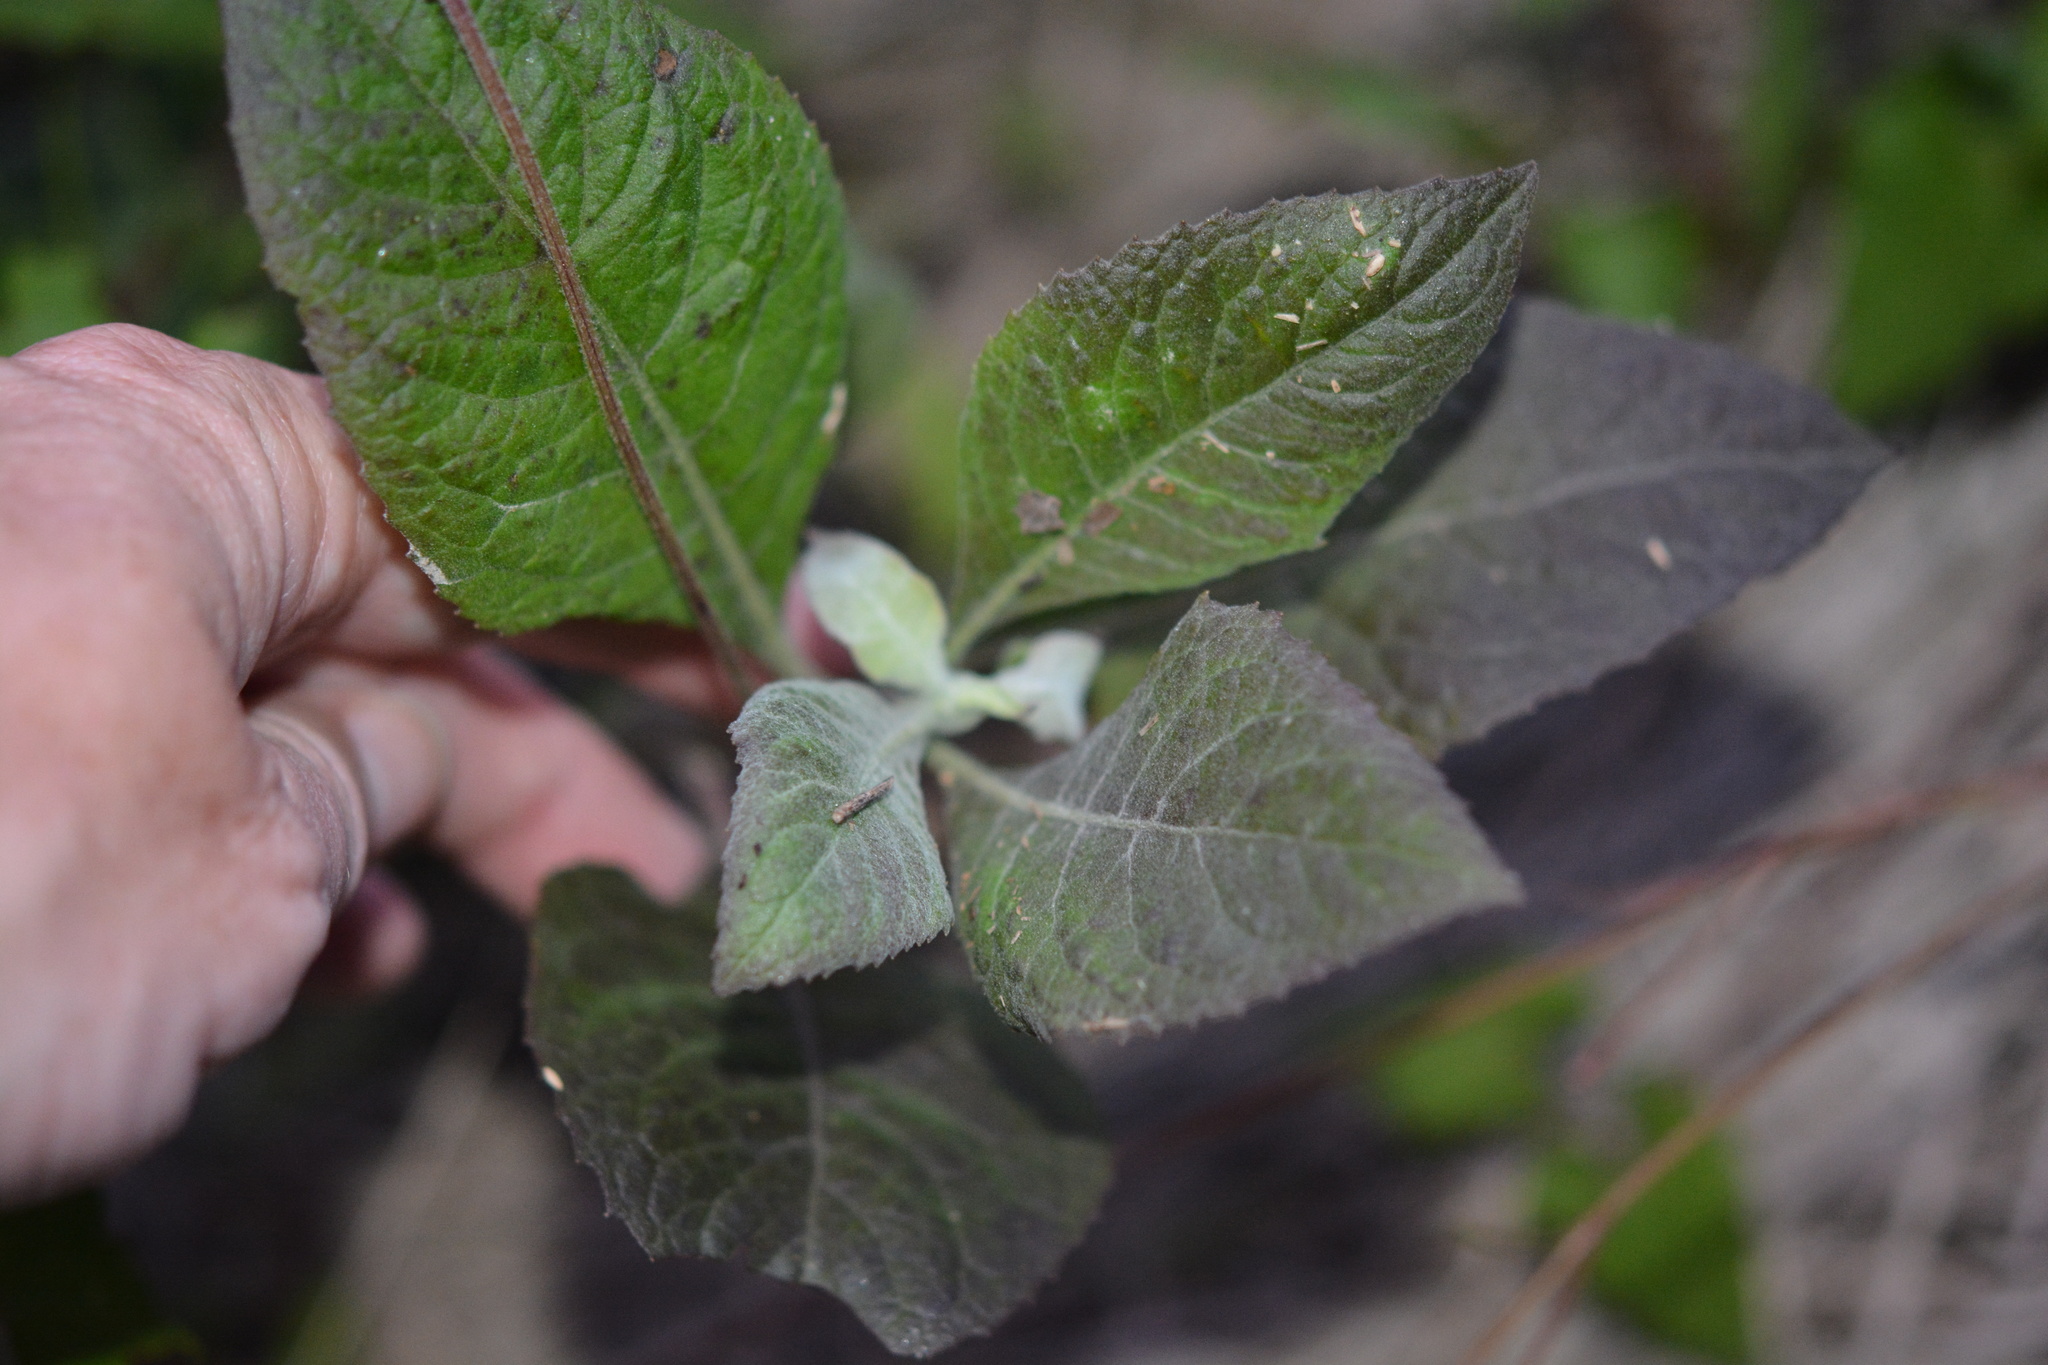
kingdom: Plantae
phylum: Tracheophyta
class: Magnoliopsida
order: Asterales
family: Asteraceae
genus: Pluchea
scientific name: Pluchea camphorata
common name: Camphor pluchea
